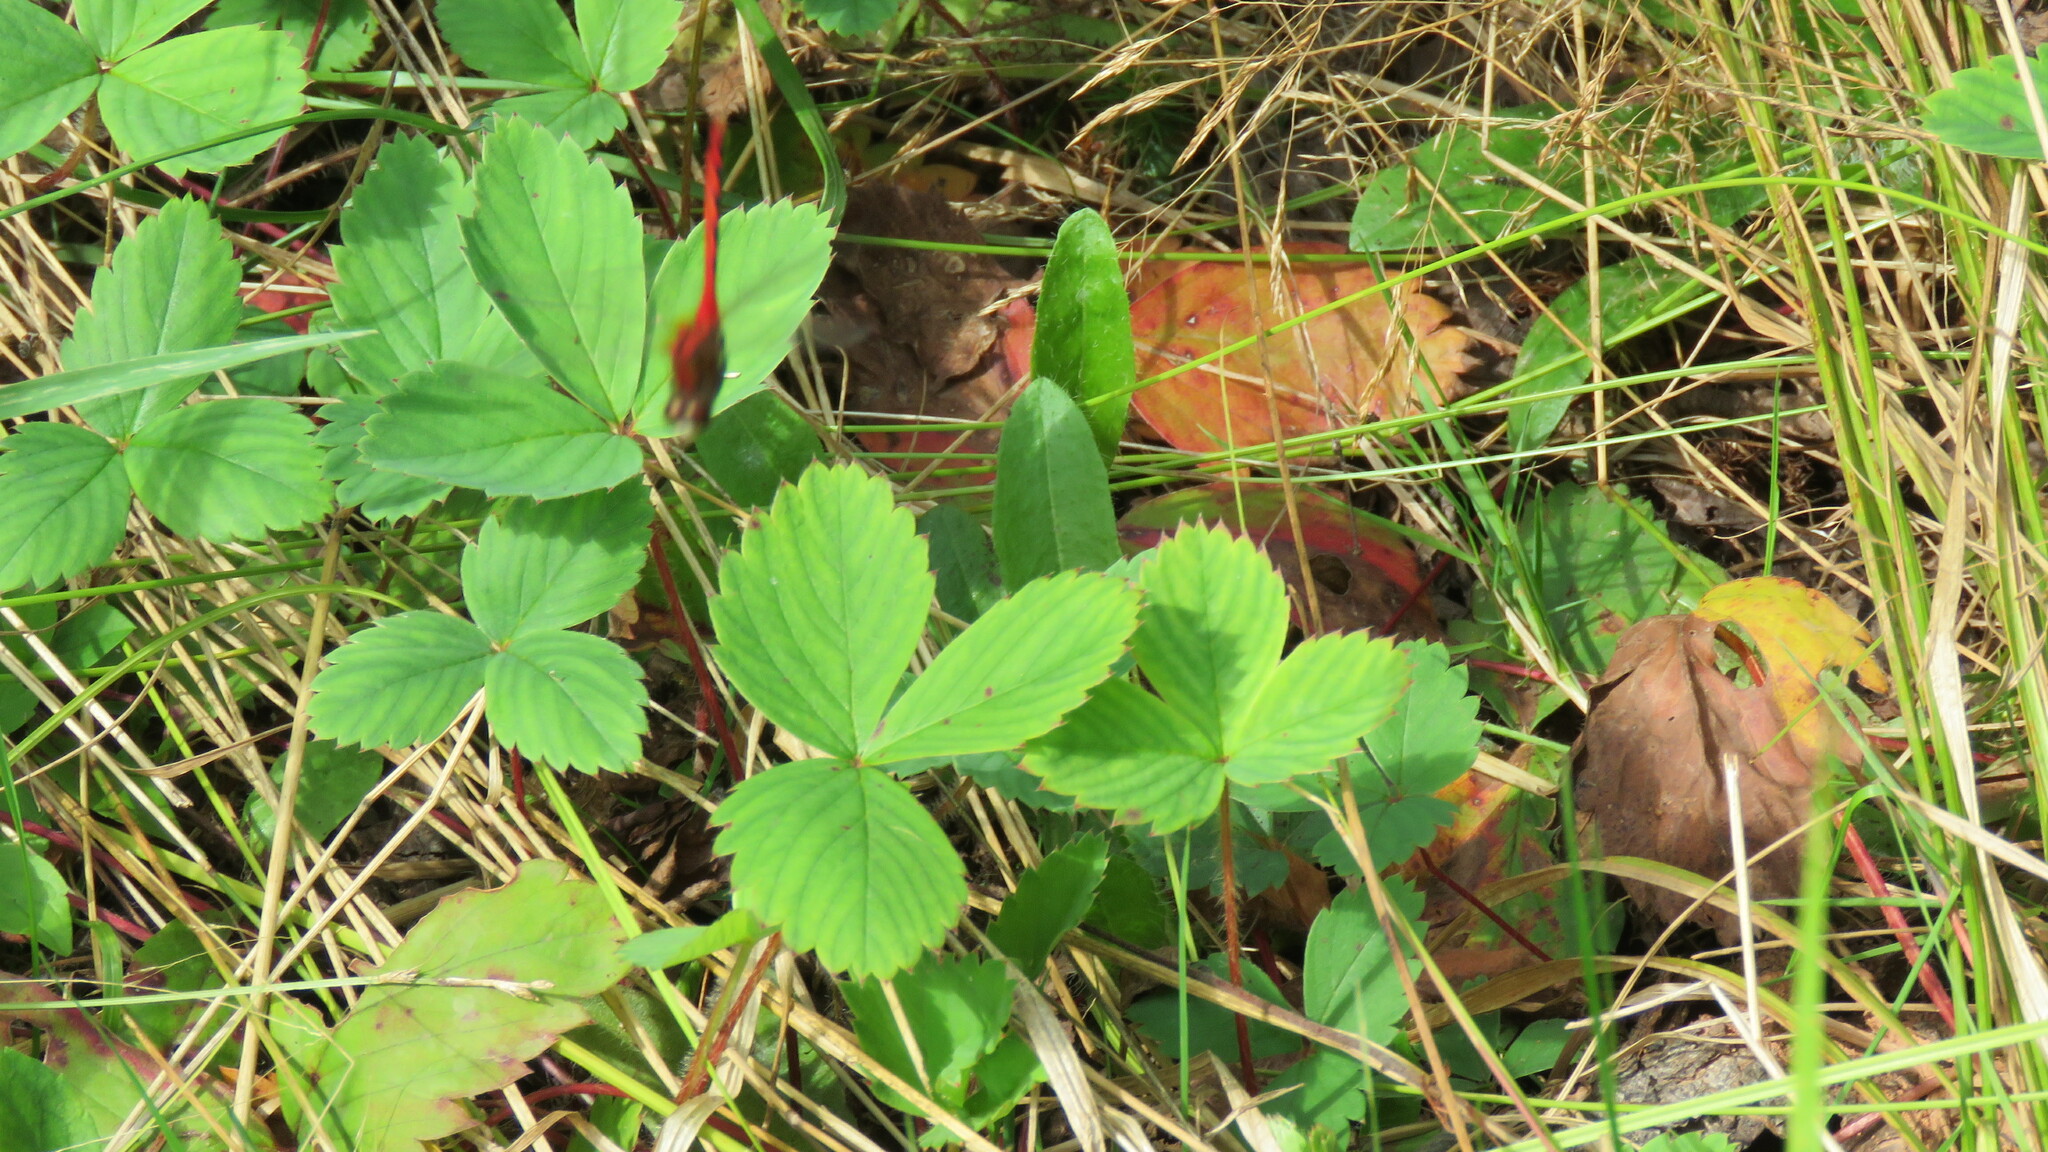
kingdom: Plantae
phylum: Tracheophyta
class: Magnoliopsida
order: Rosales
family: Rosaceae
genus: Fragaria
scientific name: Fragaria virginiana
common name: Thickleaved wild strawberry
